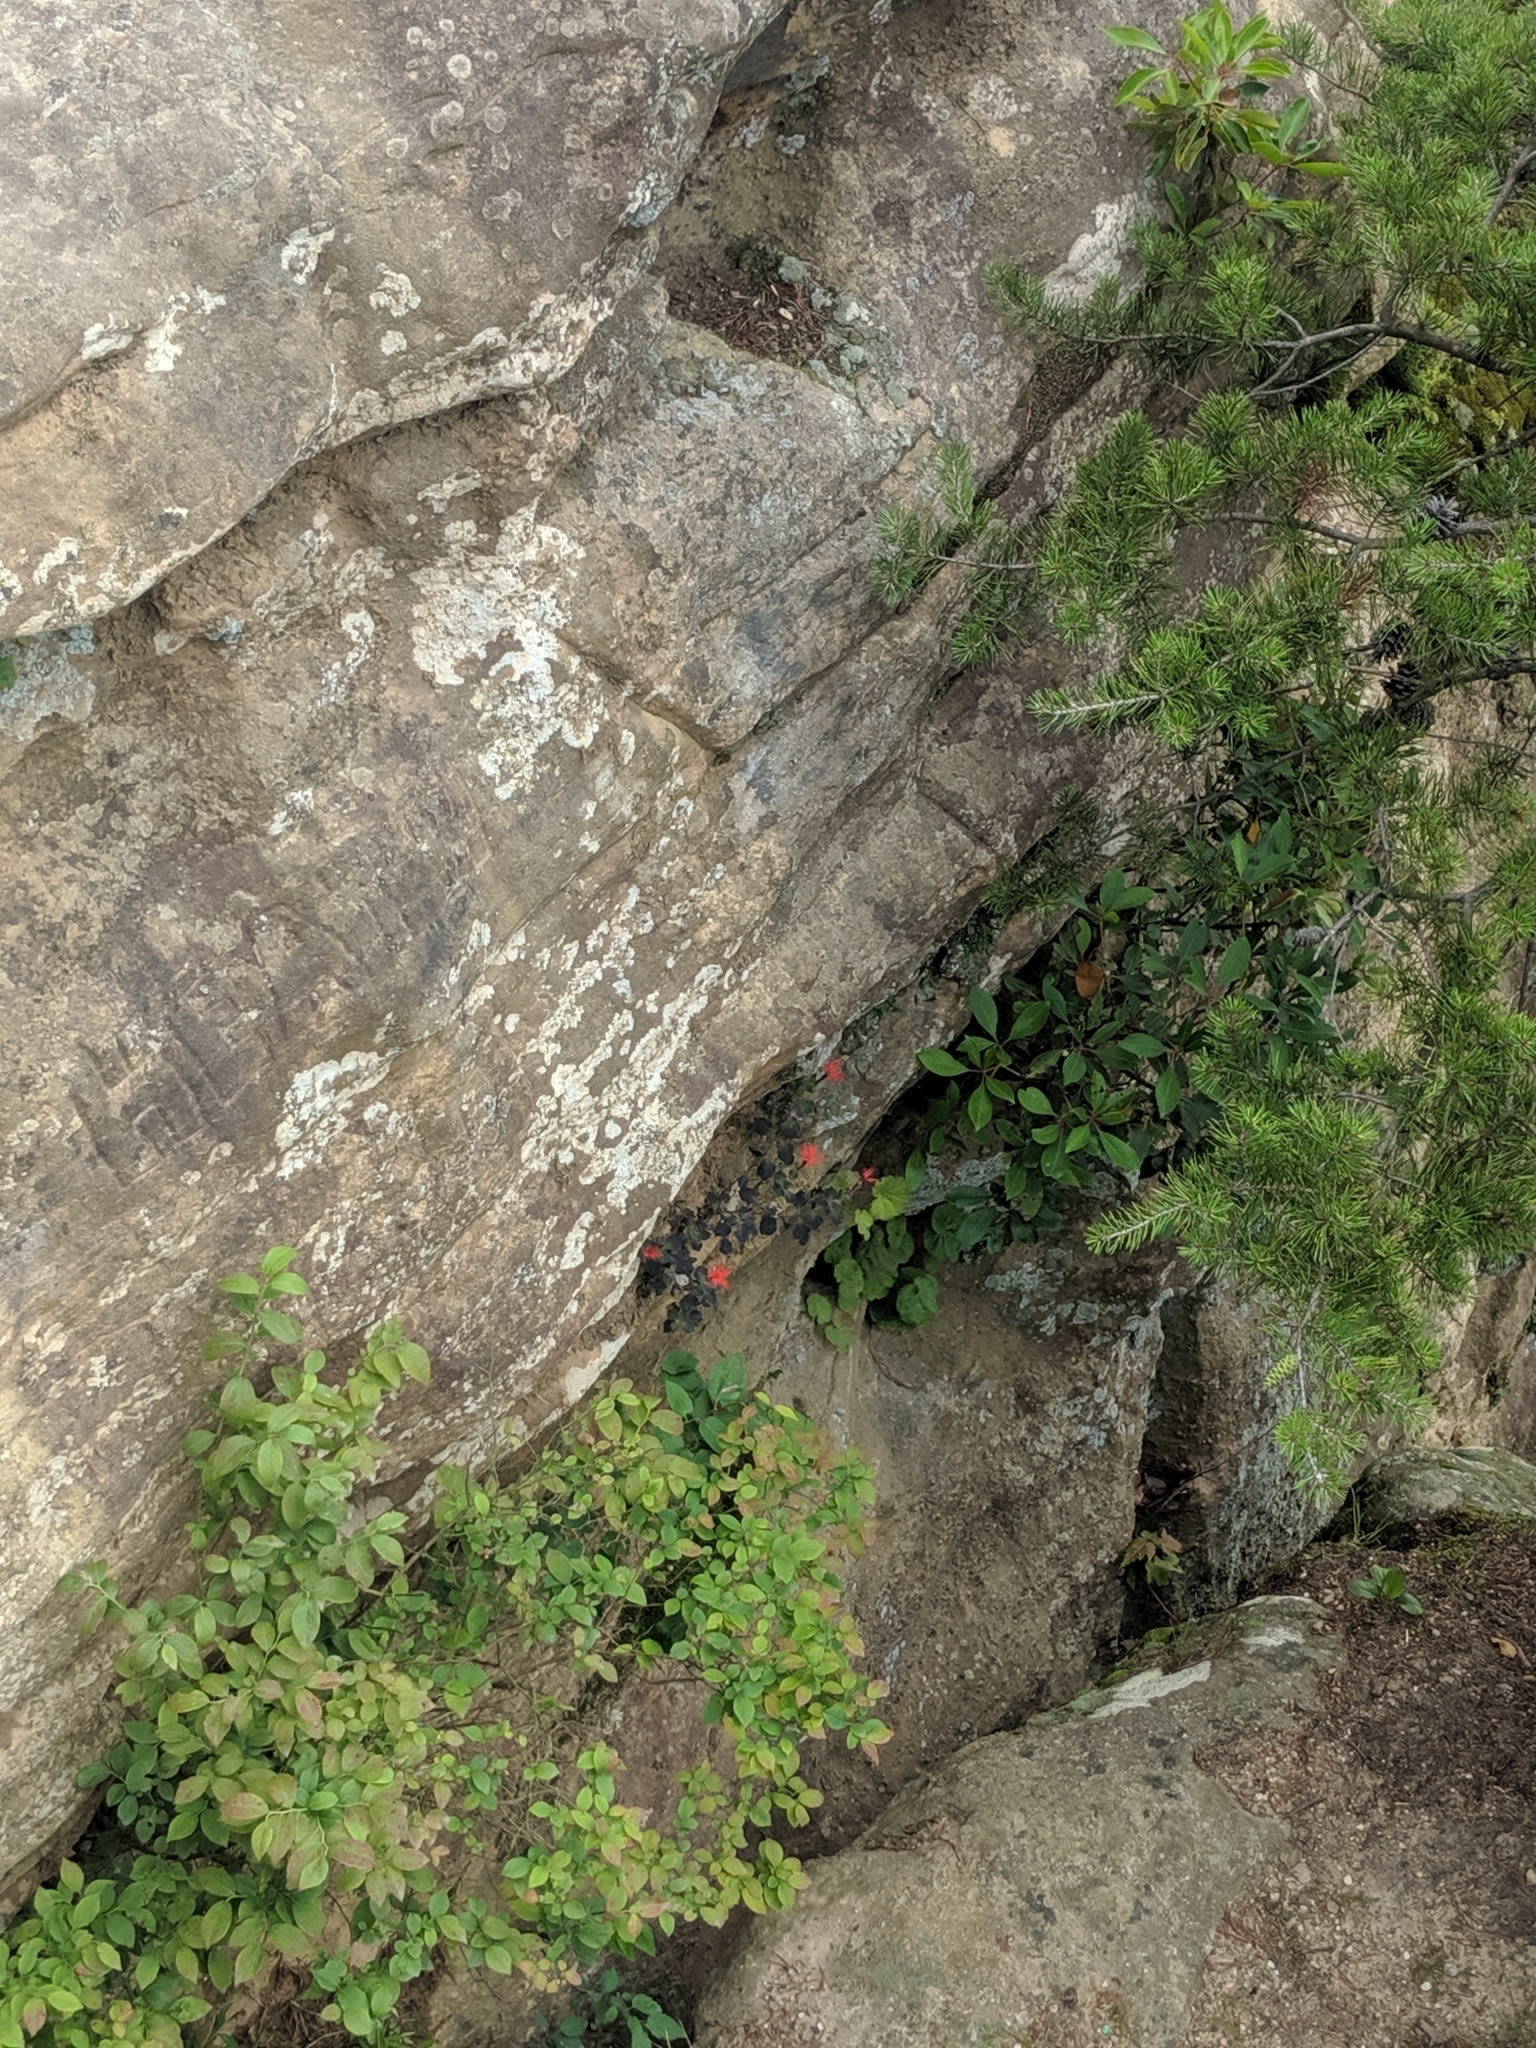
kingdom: Plantae
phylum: Tracheophyta
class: Magnoliopsida
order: Caryophyllales
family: Caryophyllaceae
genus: Silene
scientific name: Silene rotundifolia
